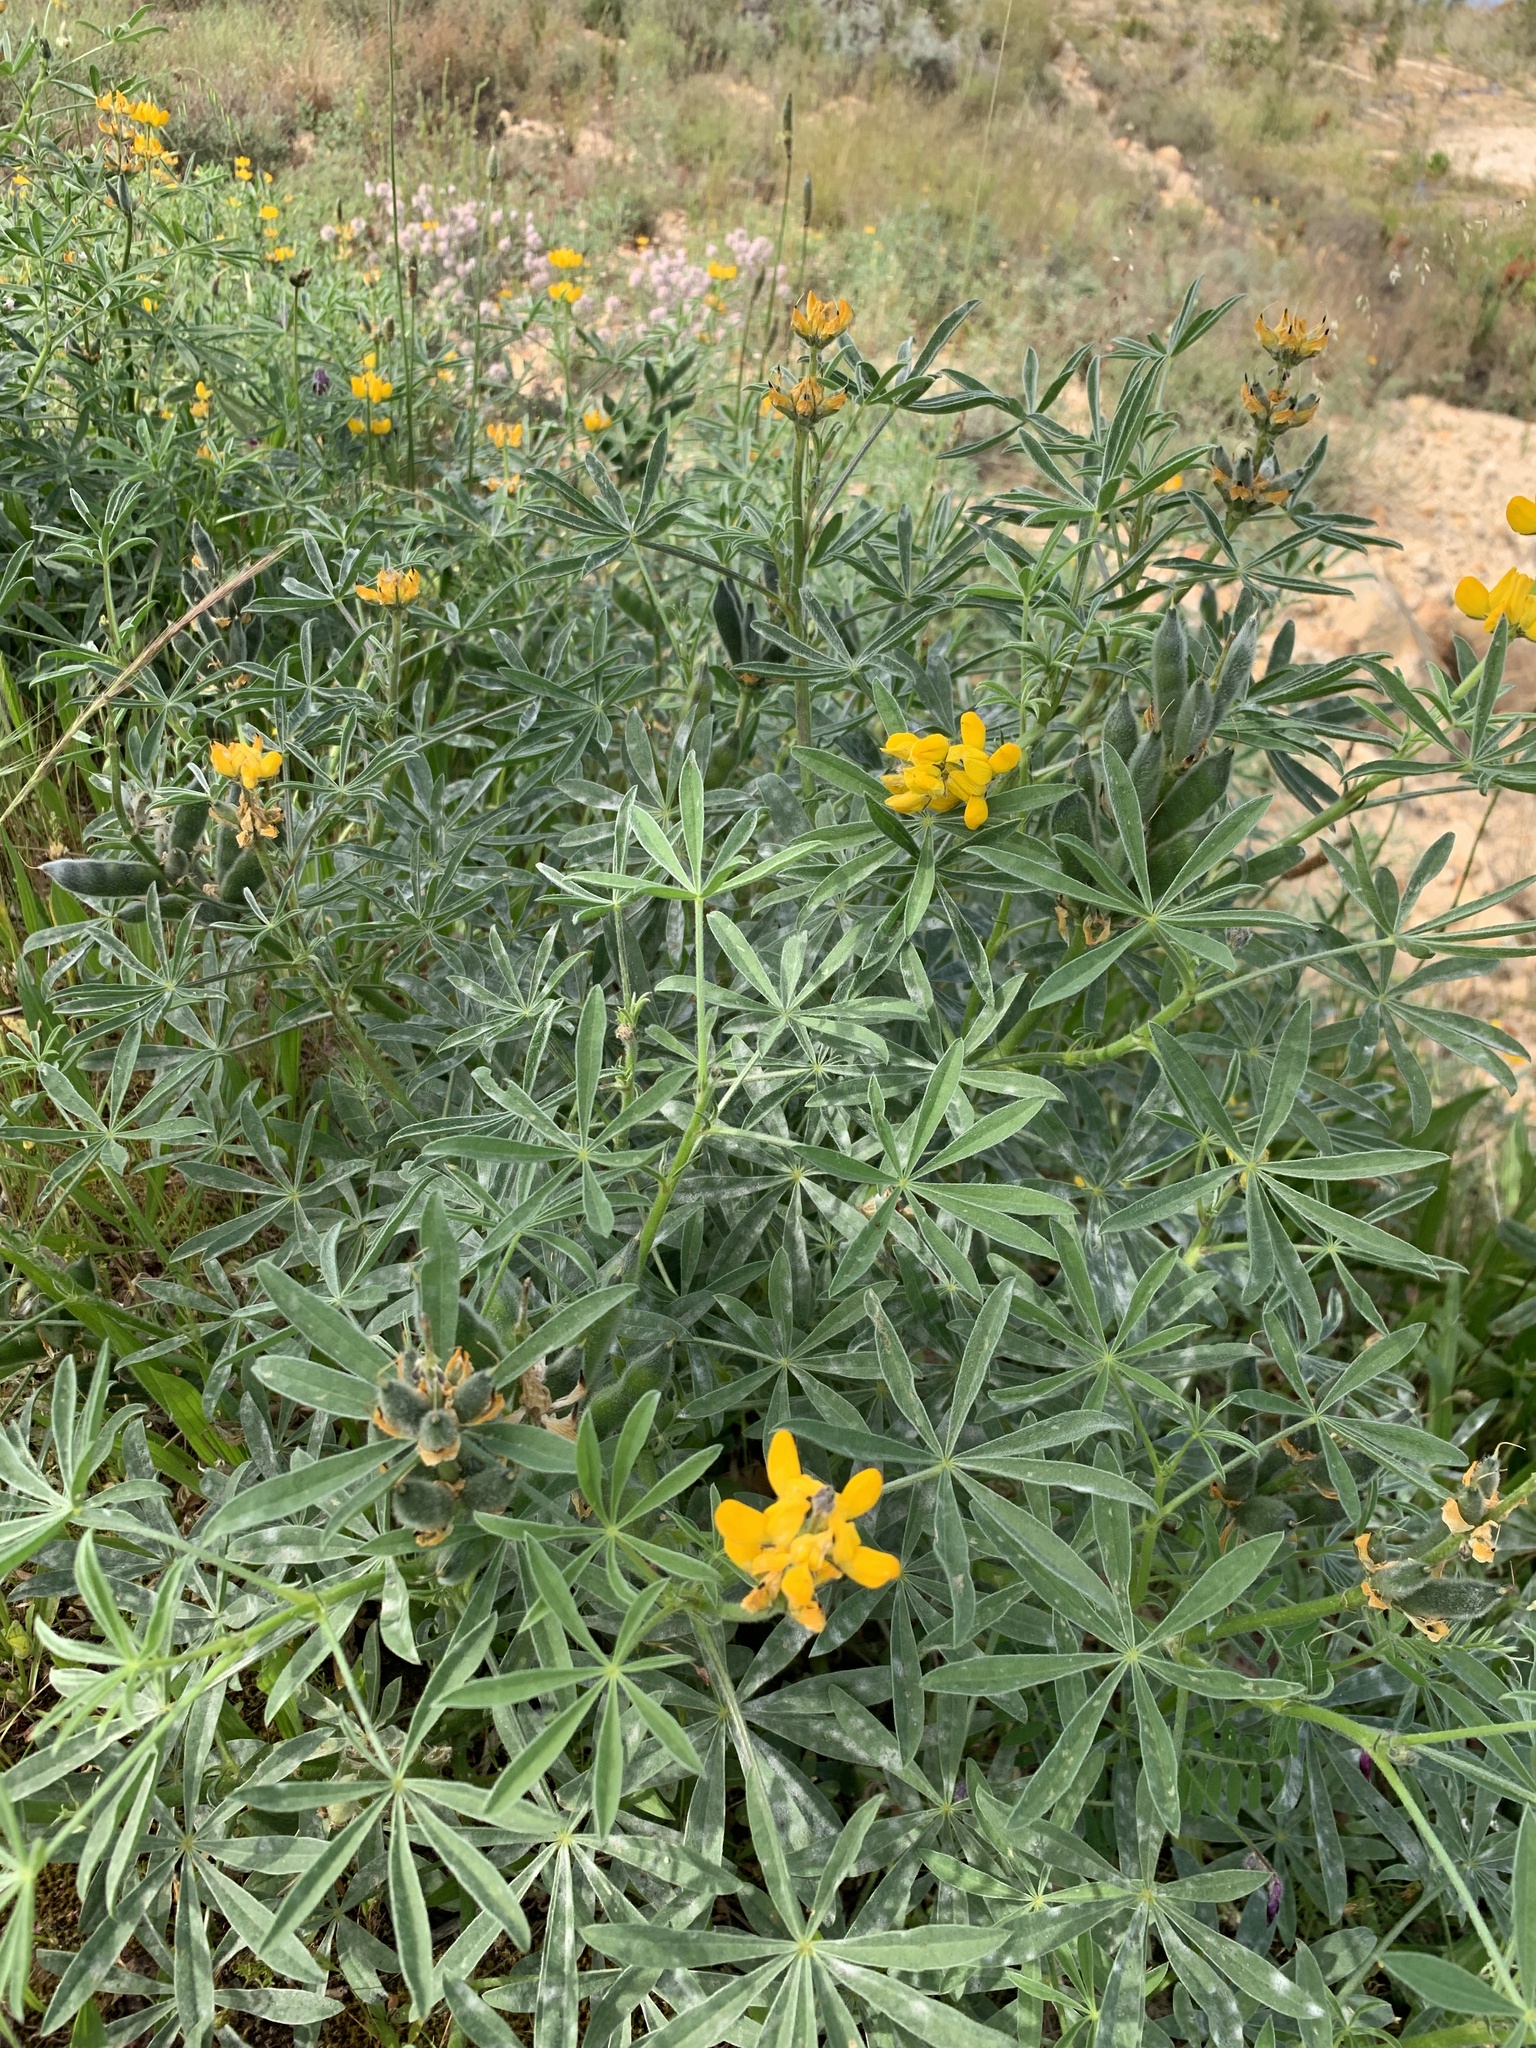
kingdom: Plantae
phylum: Tracheophyta
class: Magnoliopsida
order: Fabales
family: Fabaceae
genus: Lupinus
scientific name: Lupinus luteus
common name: European yellow lupine
